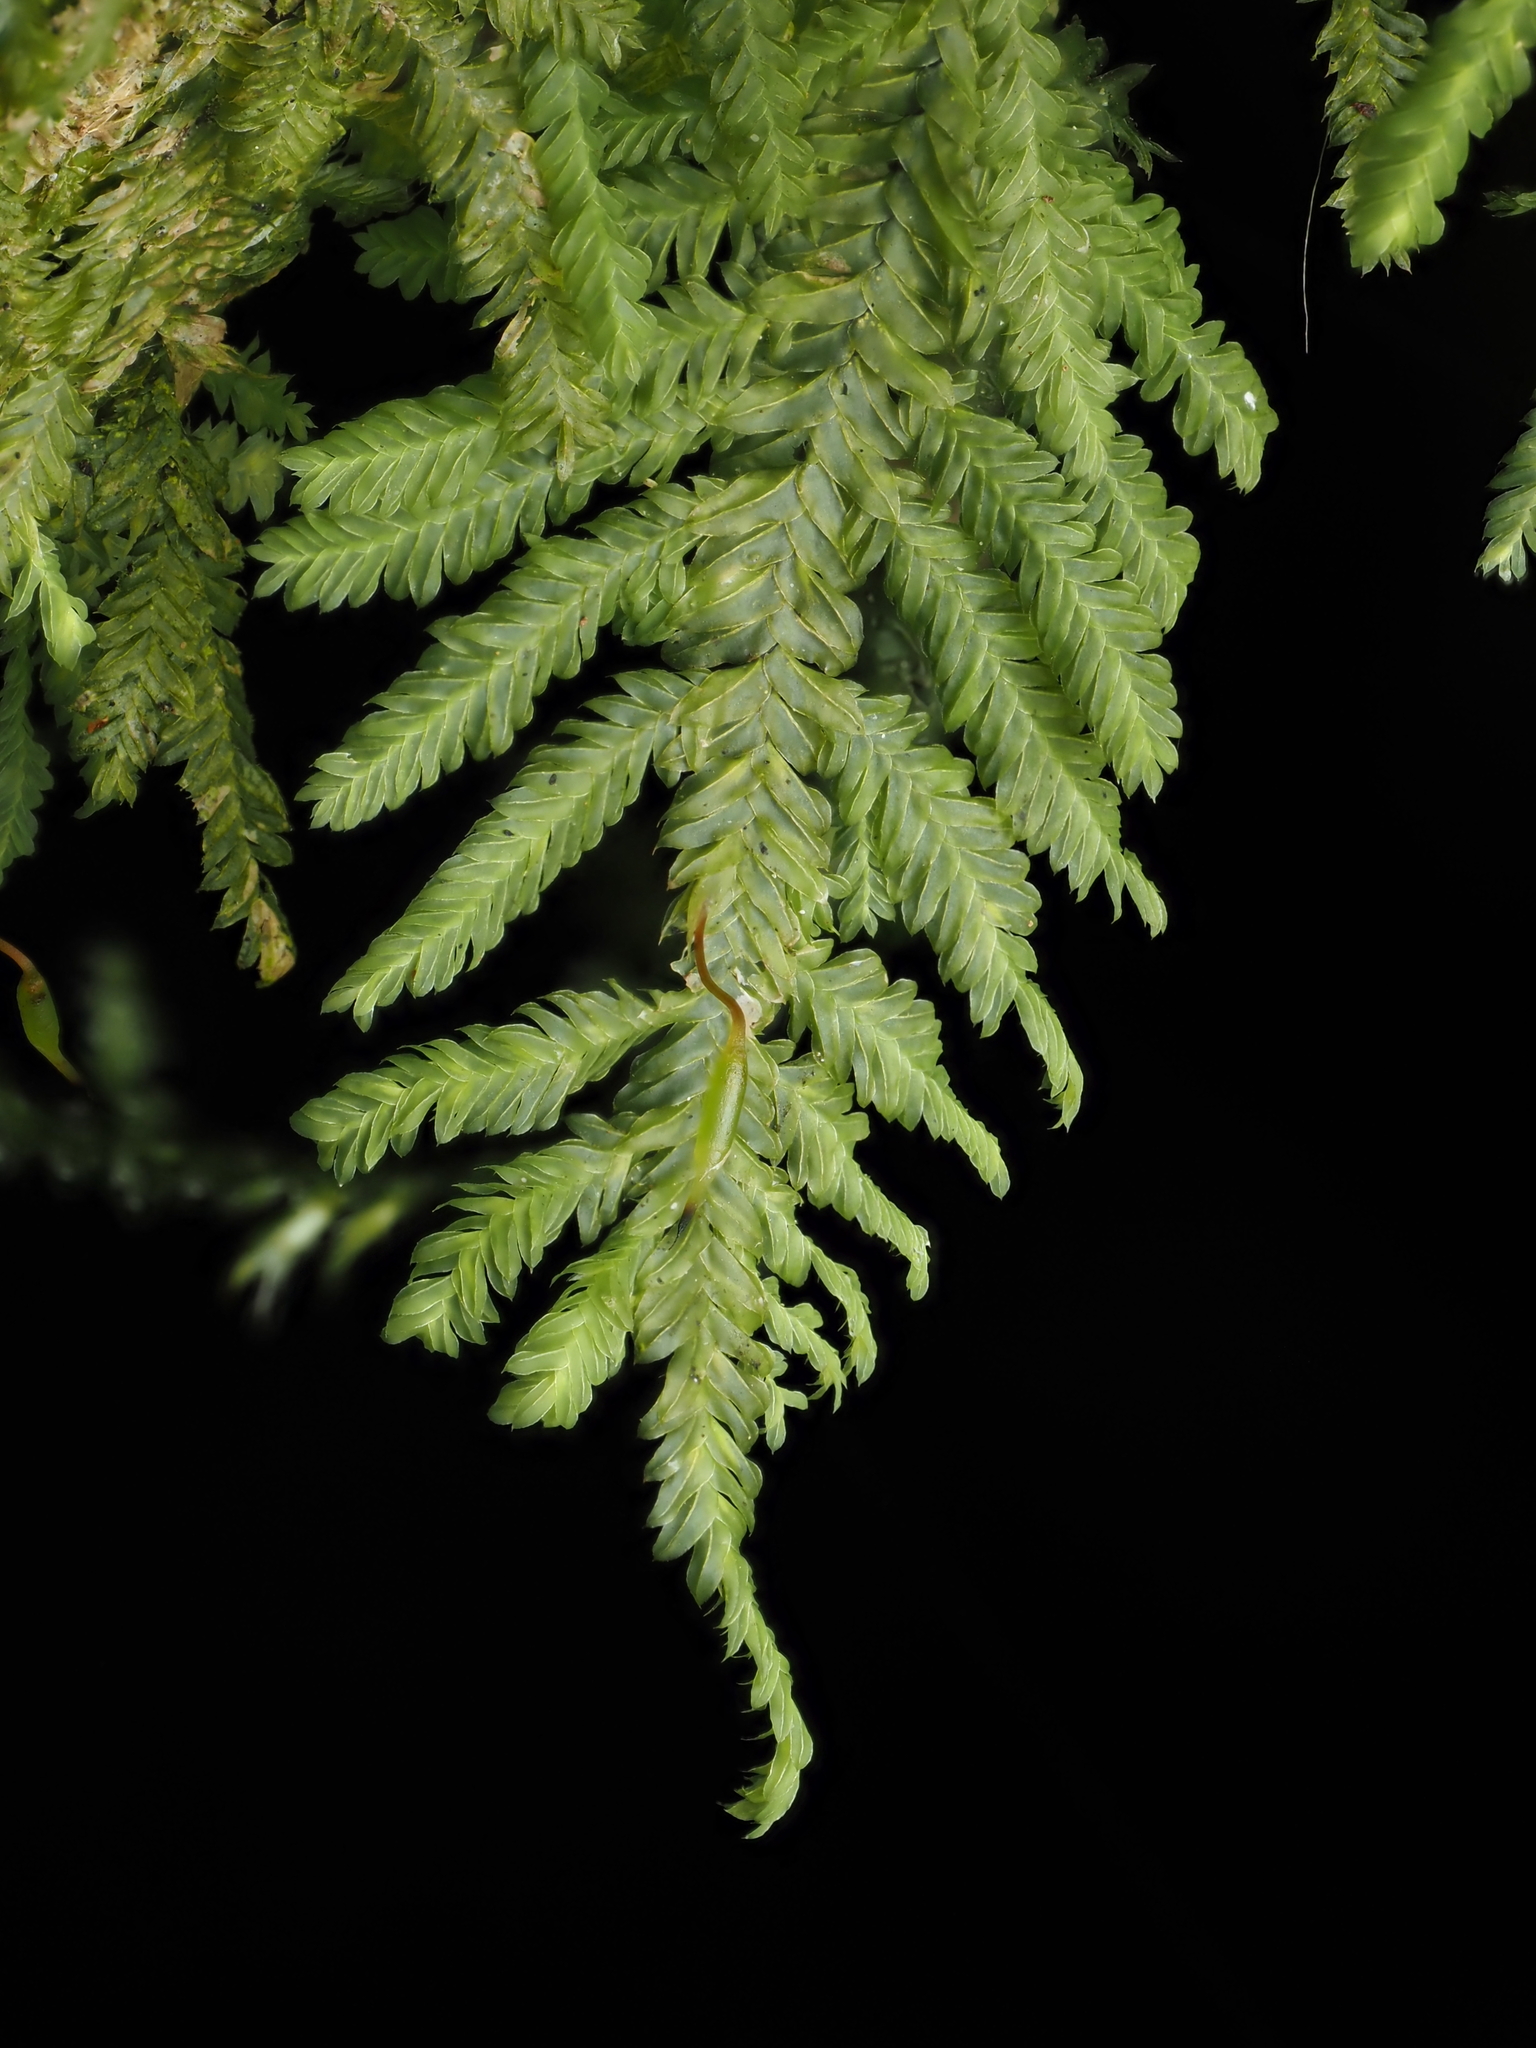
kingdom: Plantae
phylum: Bryophyta
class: Bryopsida
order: Hypopterygiales
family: Hypopterygiaceae
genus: Lopidium
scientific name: Lopidium concinnum
